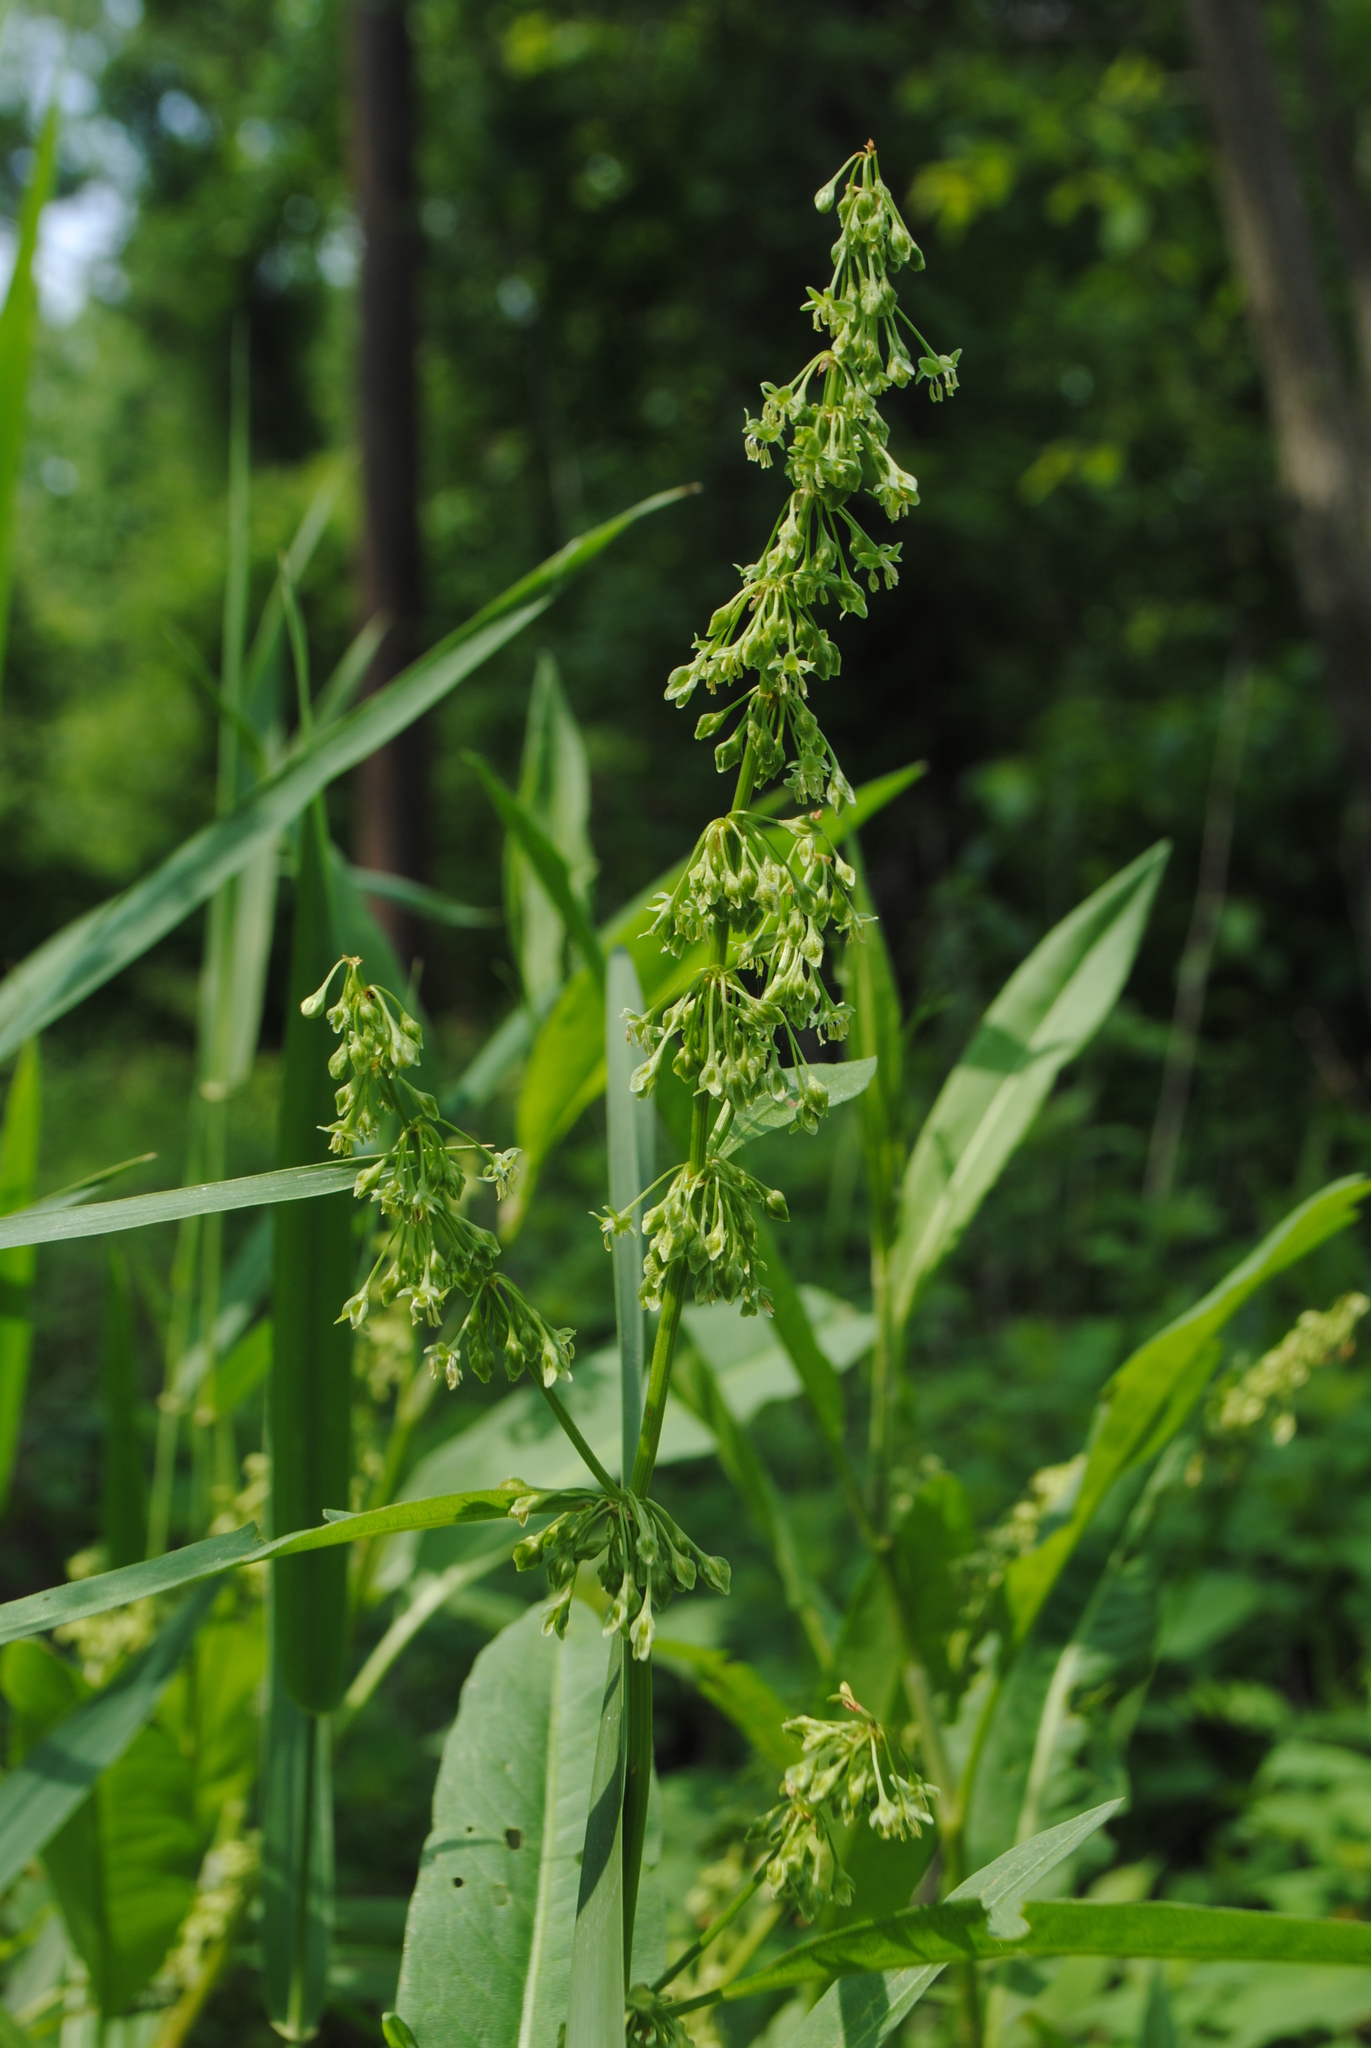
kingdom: Plantae
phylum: Tracheophyta
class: Magnoliopsida
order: Caryophyllales
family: Polygonaceae
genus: Rumex
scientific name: Rumex verticillatus
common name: Swamp dock
